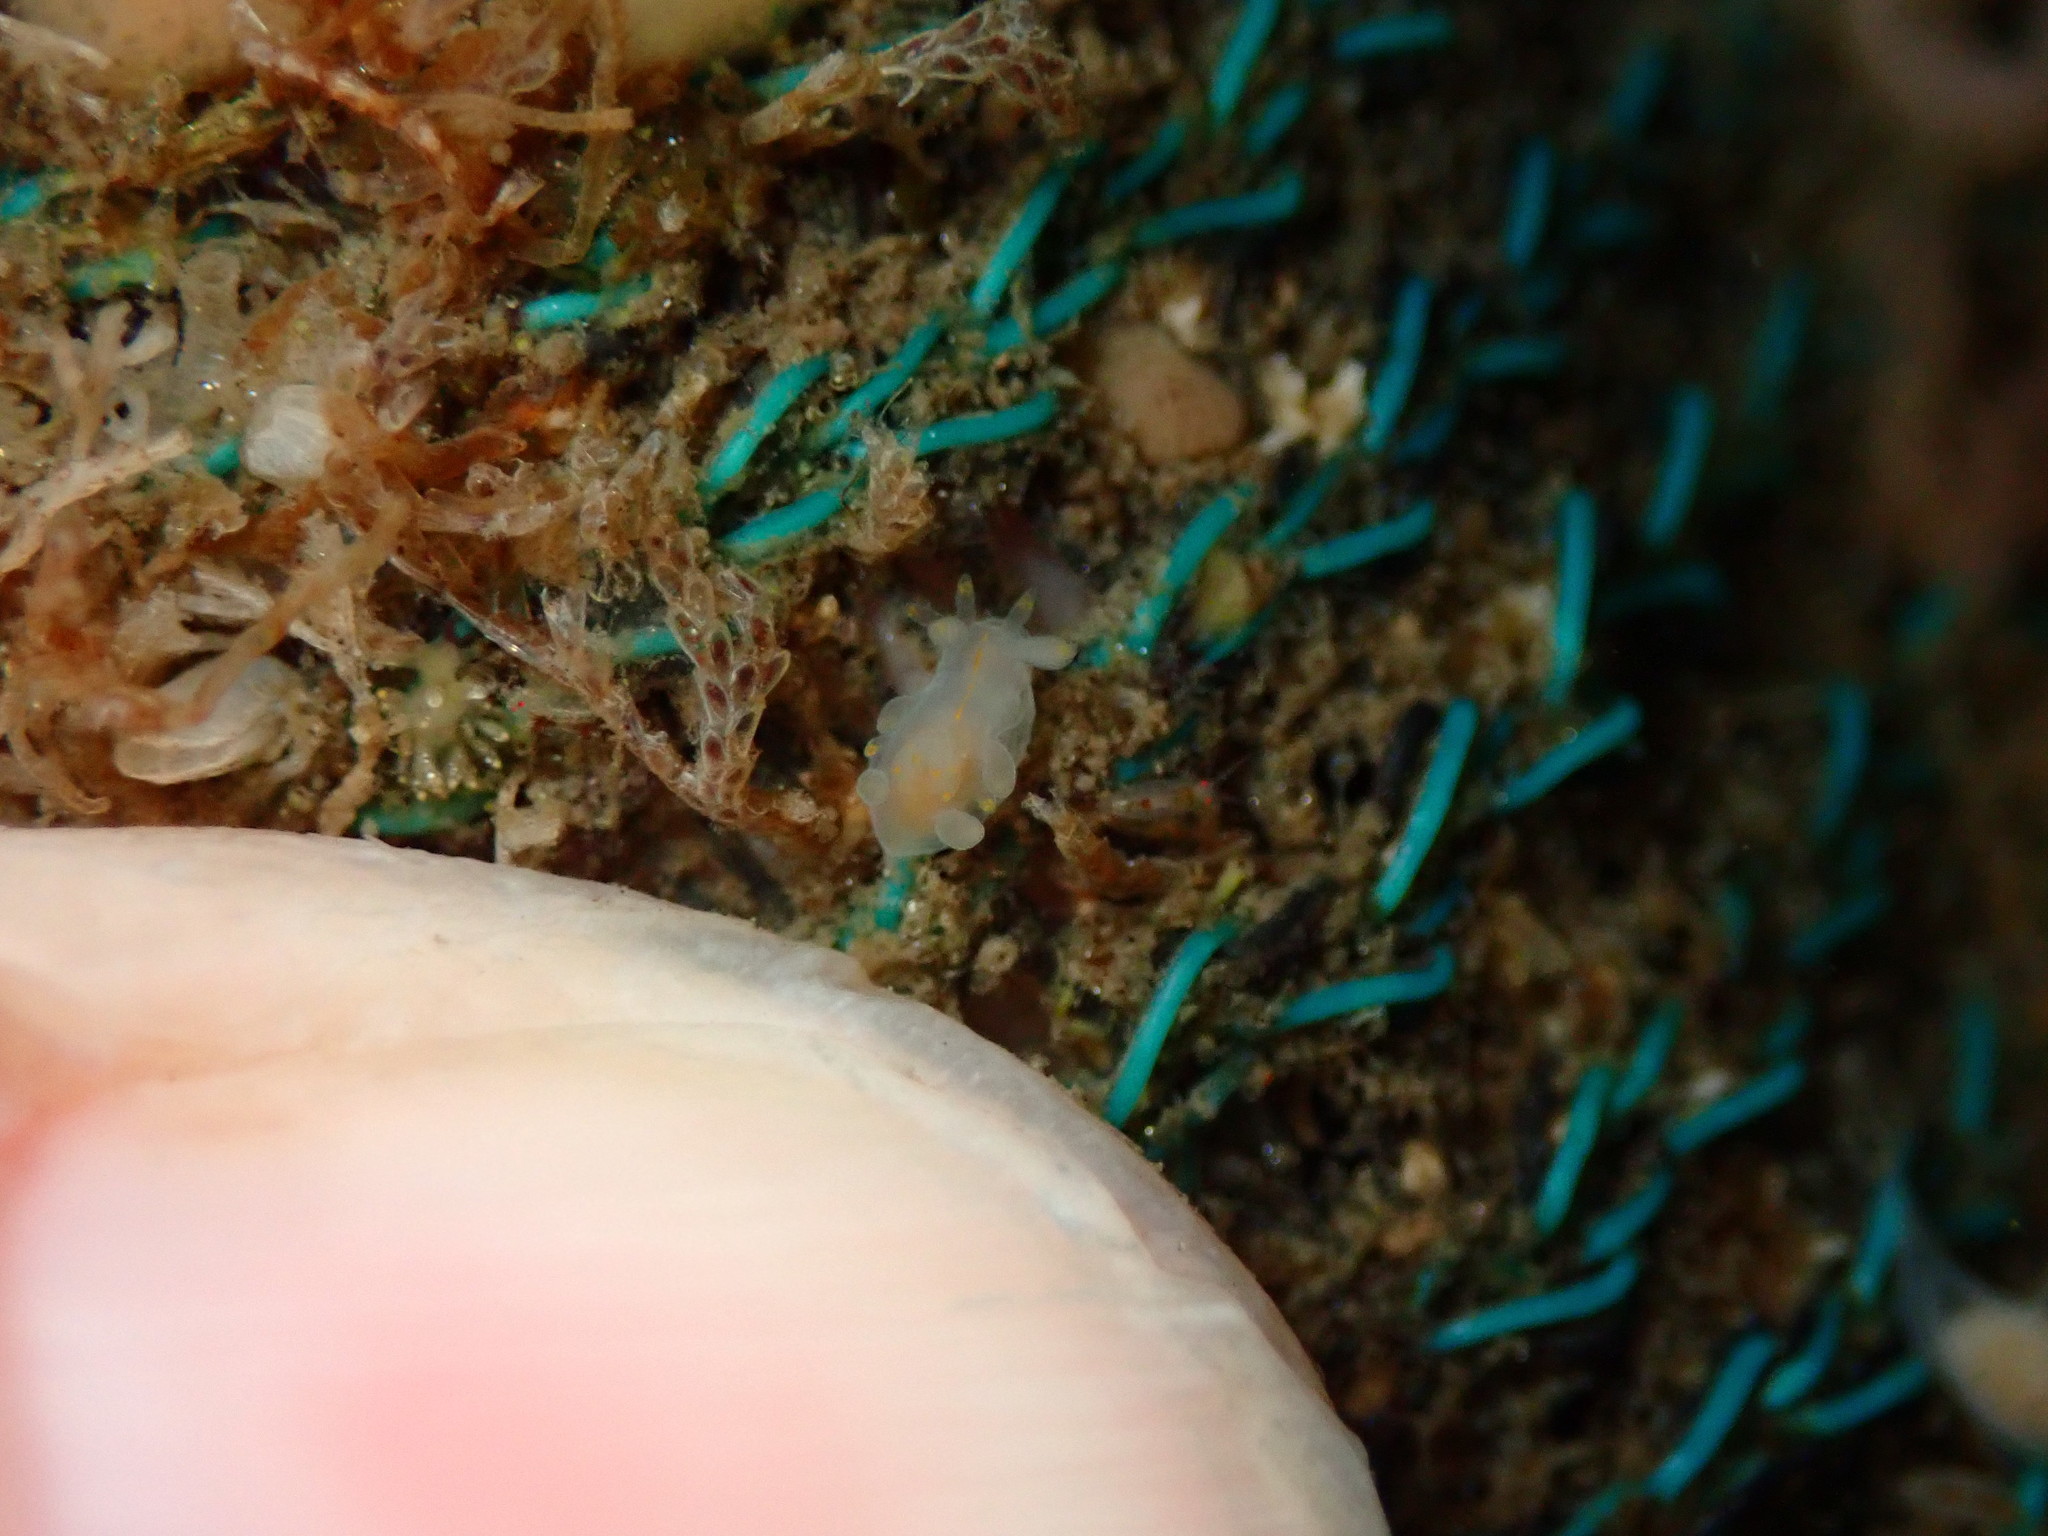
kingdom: Animalia
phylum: Mollusca
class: Gastropoda
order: Nudibranchia
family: Goniodorididae
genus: Ancula
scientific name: Ancula pacifica
